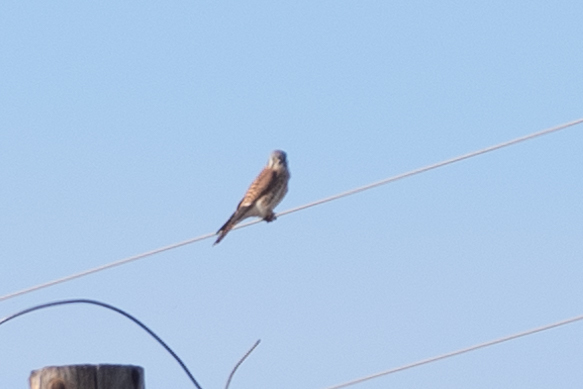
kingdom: Animalia
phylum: Chordata
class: Aves
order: Falconiformes
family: Falconidae
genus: Falco
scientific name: Falco sparverius
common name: American kestrel
